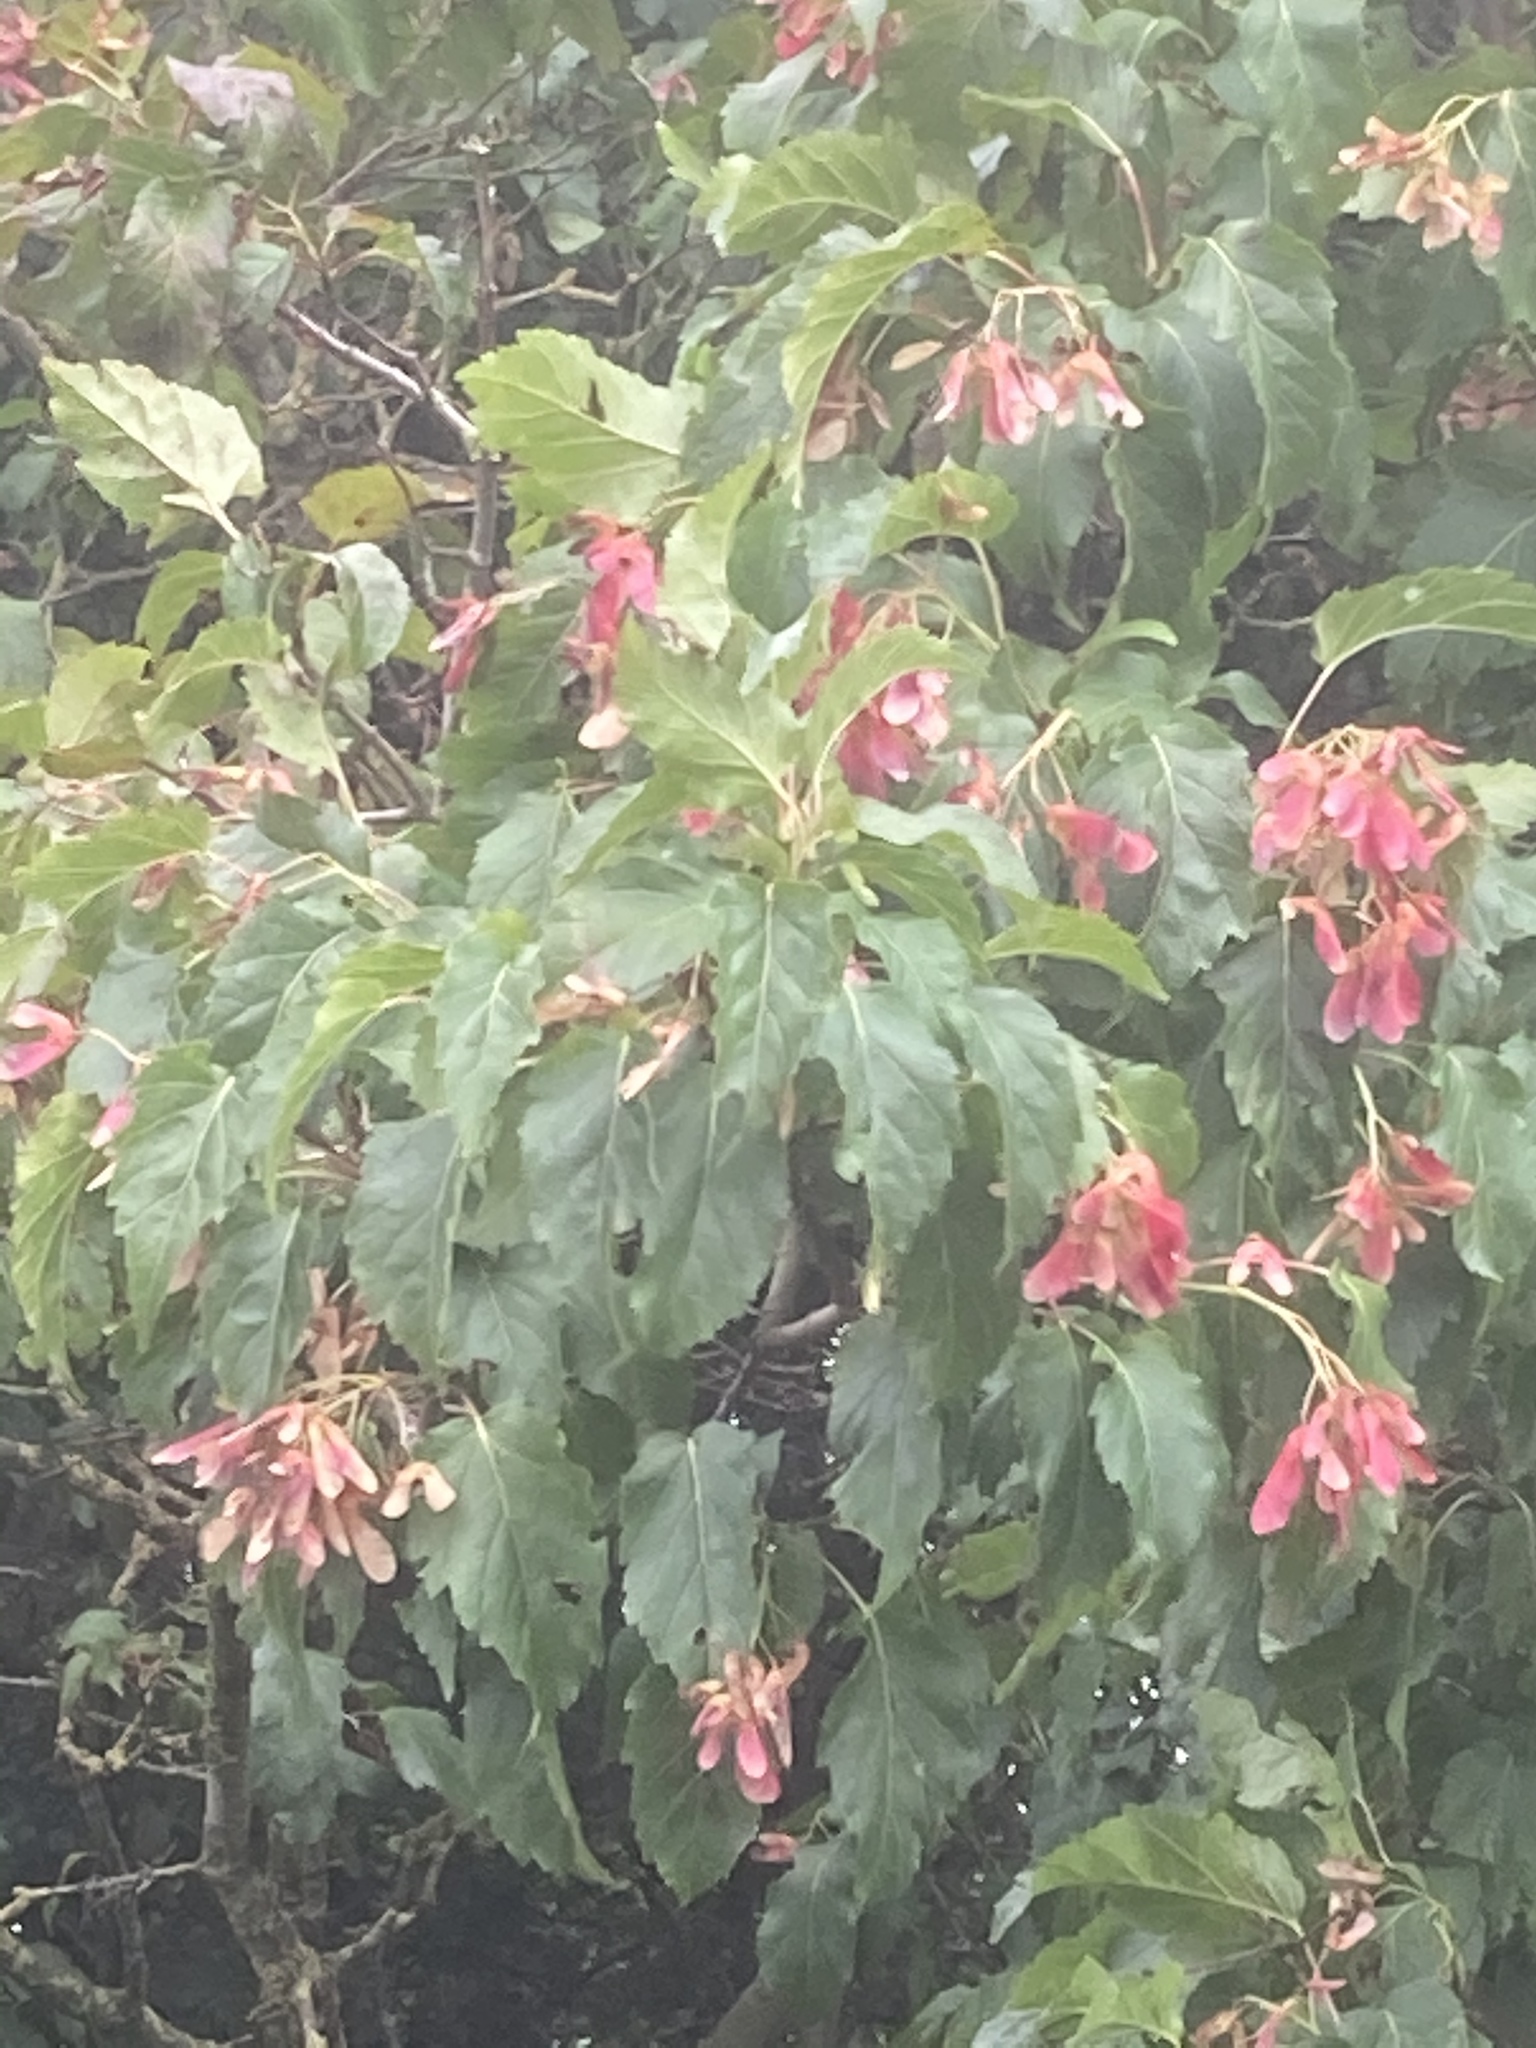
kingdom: Plantae
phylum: Tracheophyta
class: Magnoliopsida
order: Sapindales
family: Sapindaceae
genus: Acer
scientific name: Acer tataricum
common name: Tartar maple
